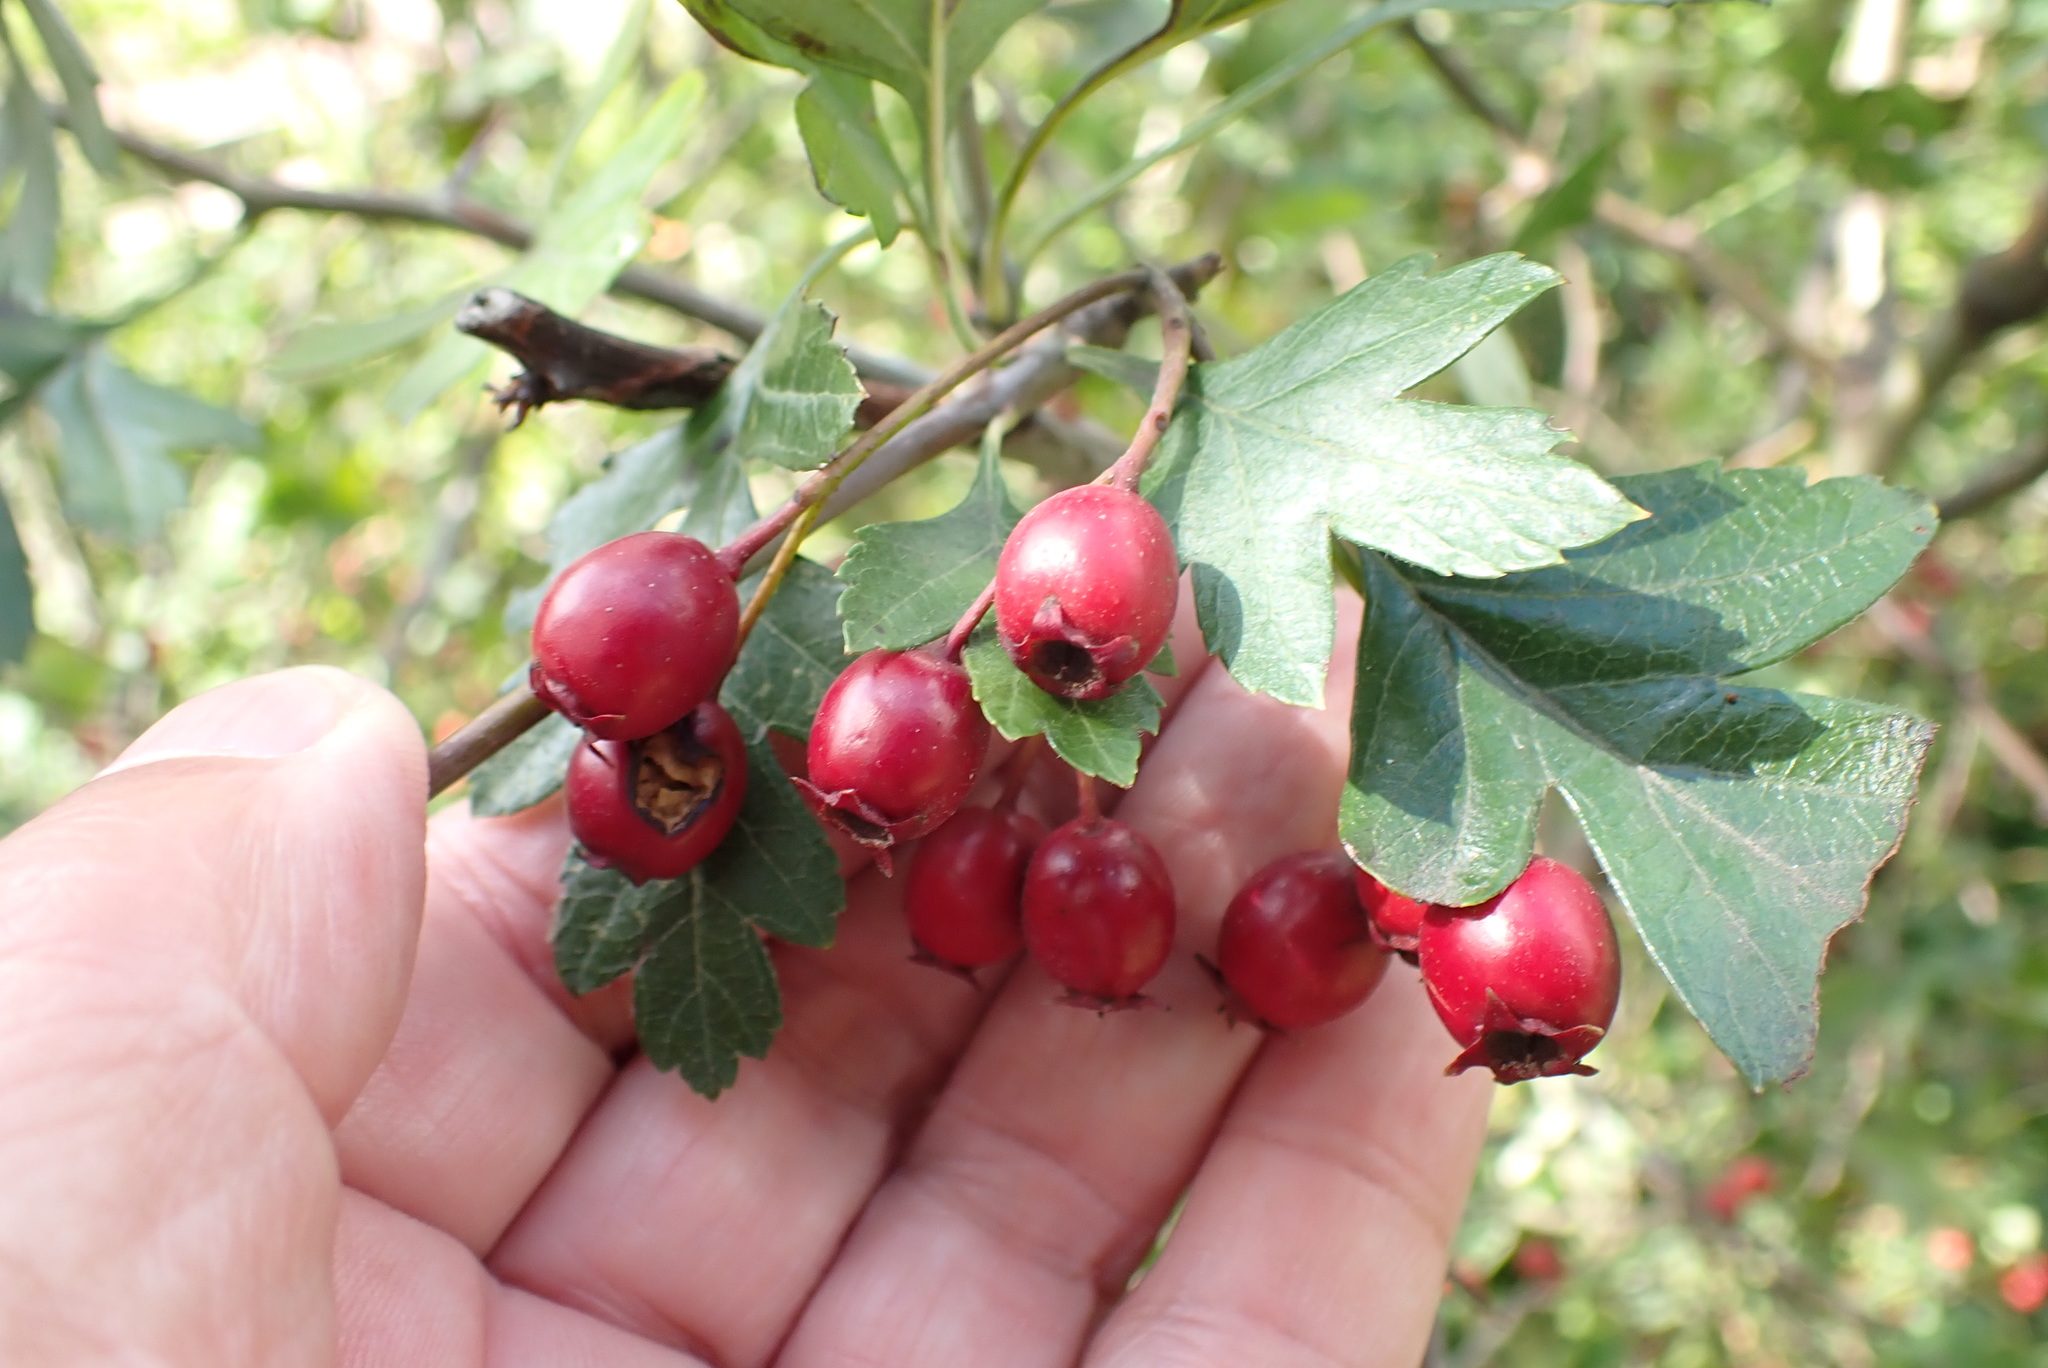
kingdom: Plantae
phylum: Tracheophyta
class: Magnoliopsida
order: Rosales
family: Rosaceae
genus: Crataegus
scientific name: Crataegus monogyna
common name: Hawthorn
